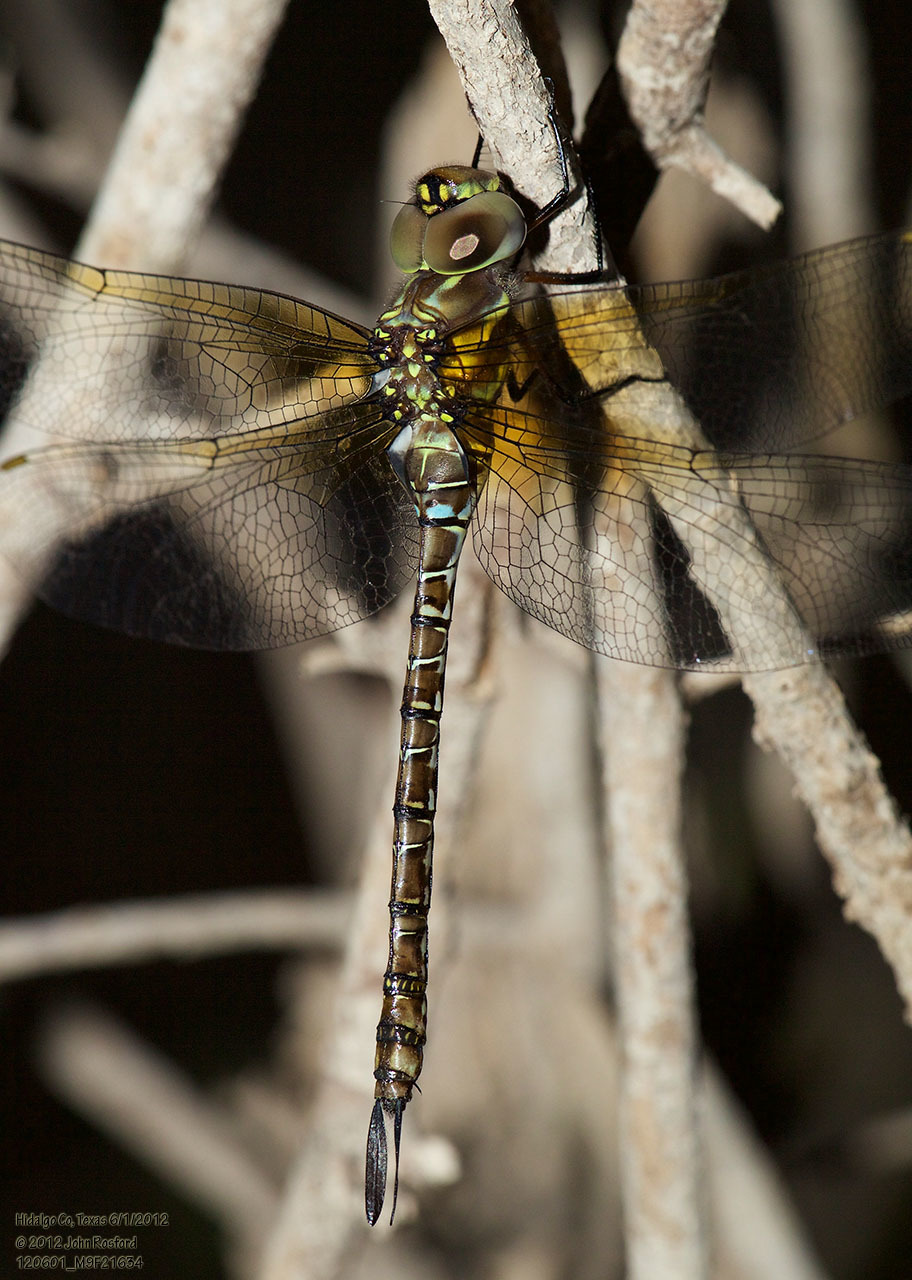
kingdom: Animalia
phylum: Arthropoda
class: Insecta
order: Odonata
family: Aeshnidae
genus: Rhionaeschna
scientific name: Rhionaeschna psilus
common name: Turquoise-tipped darner
